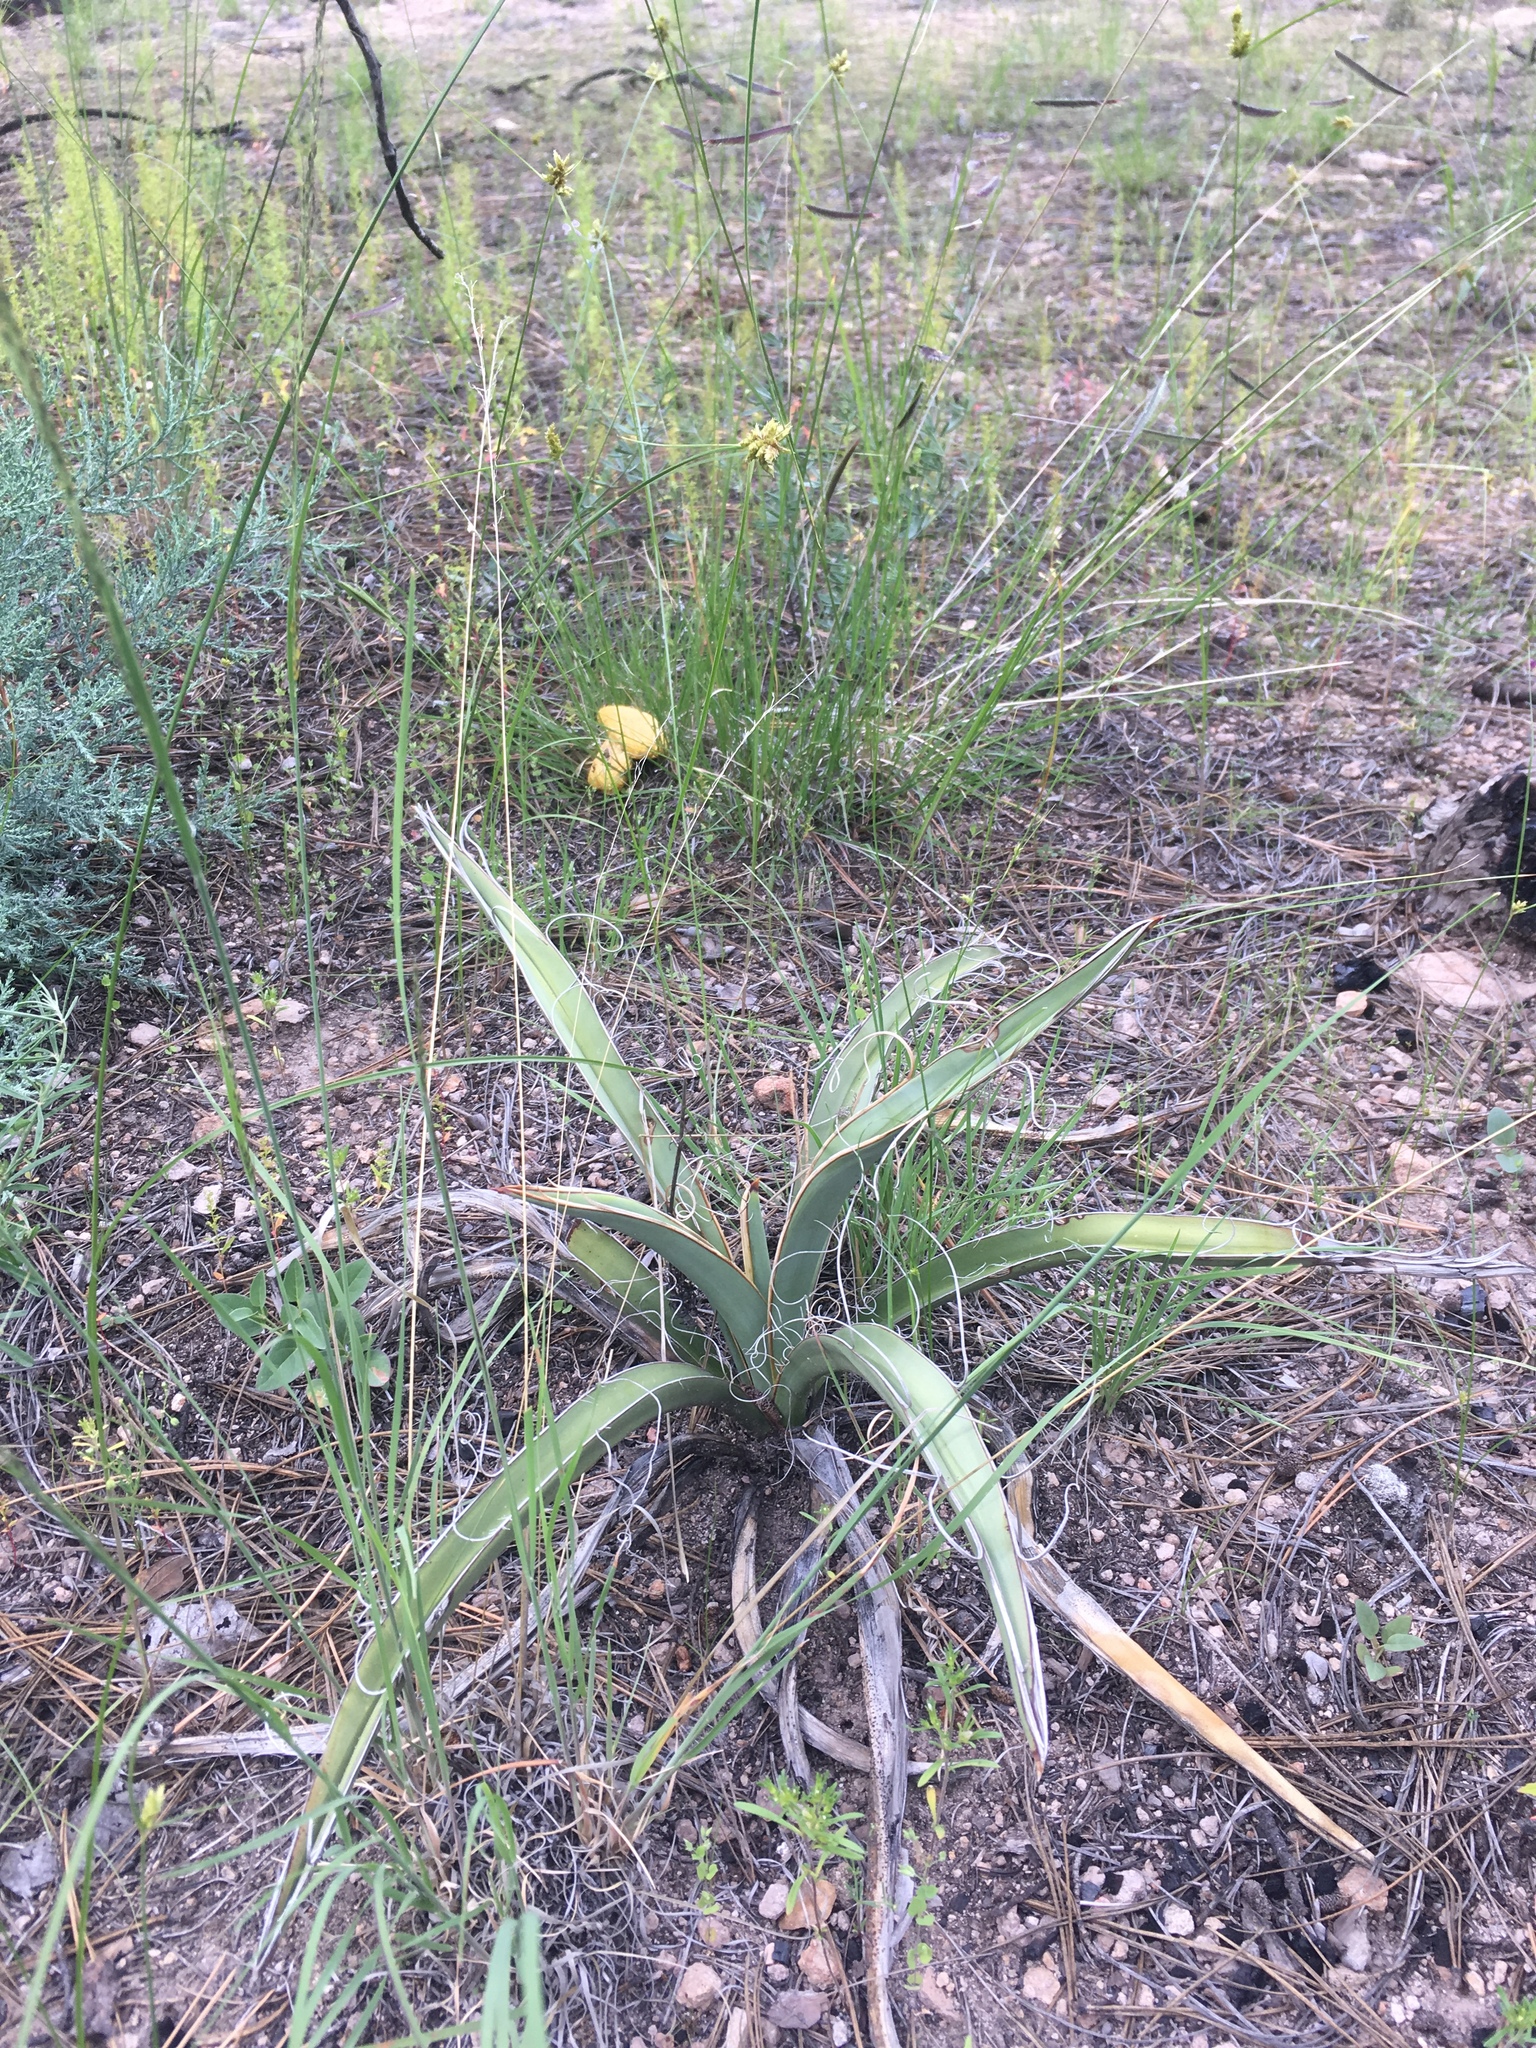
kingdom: Plantae
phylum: Tracheophyta
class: Liliopsida
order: Asparagales
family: Asparagaceae
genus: Yucca
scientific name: Yucca baccata
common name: Banana yucca
